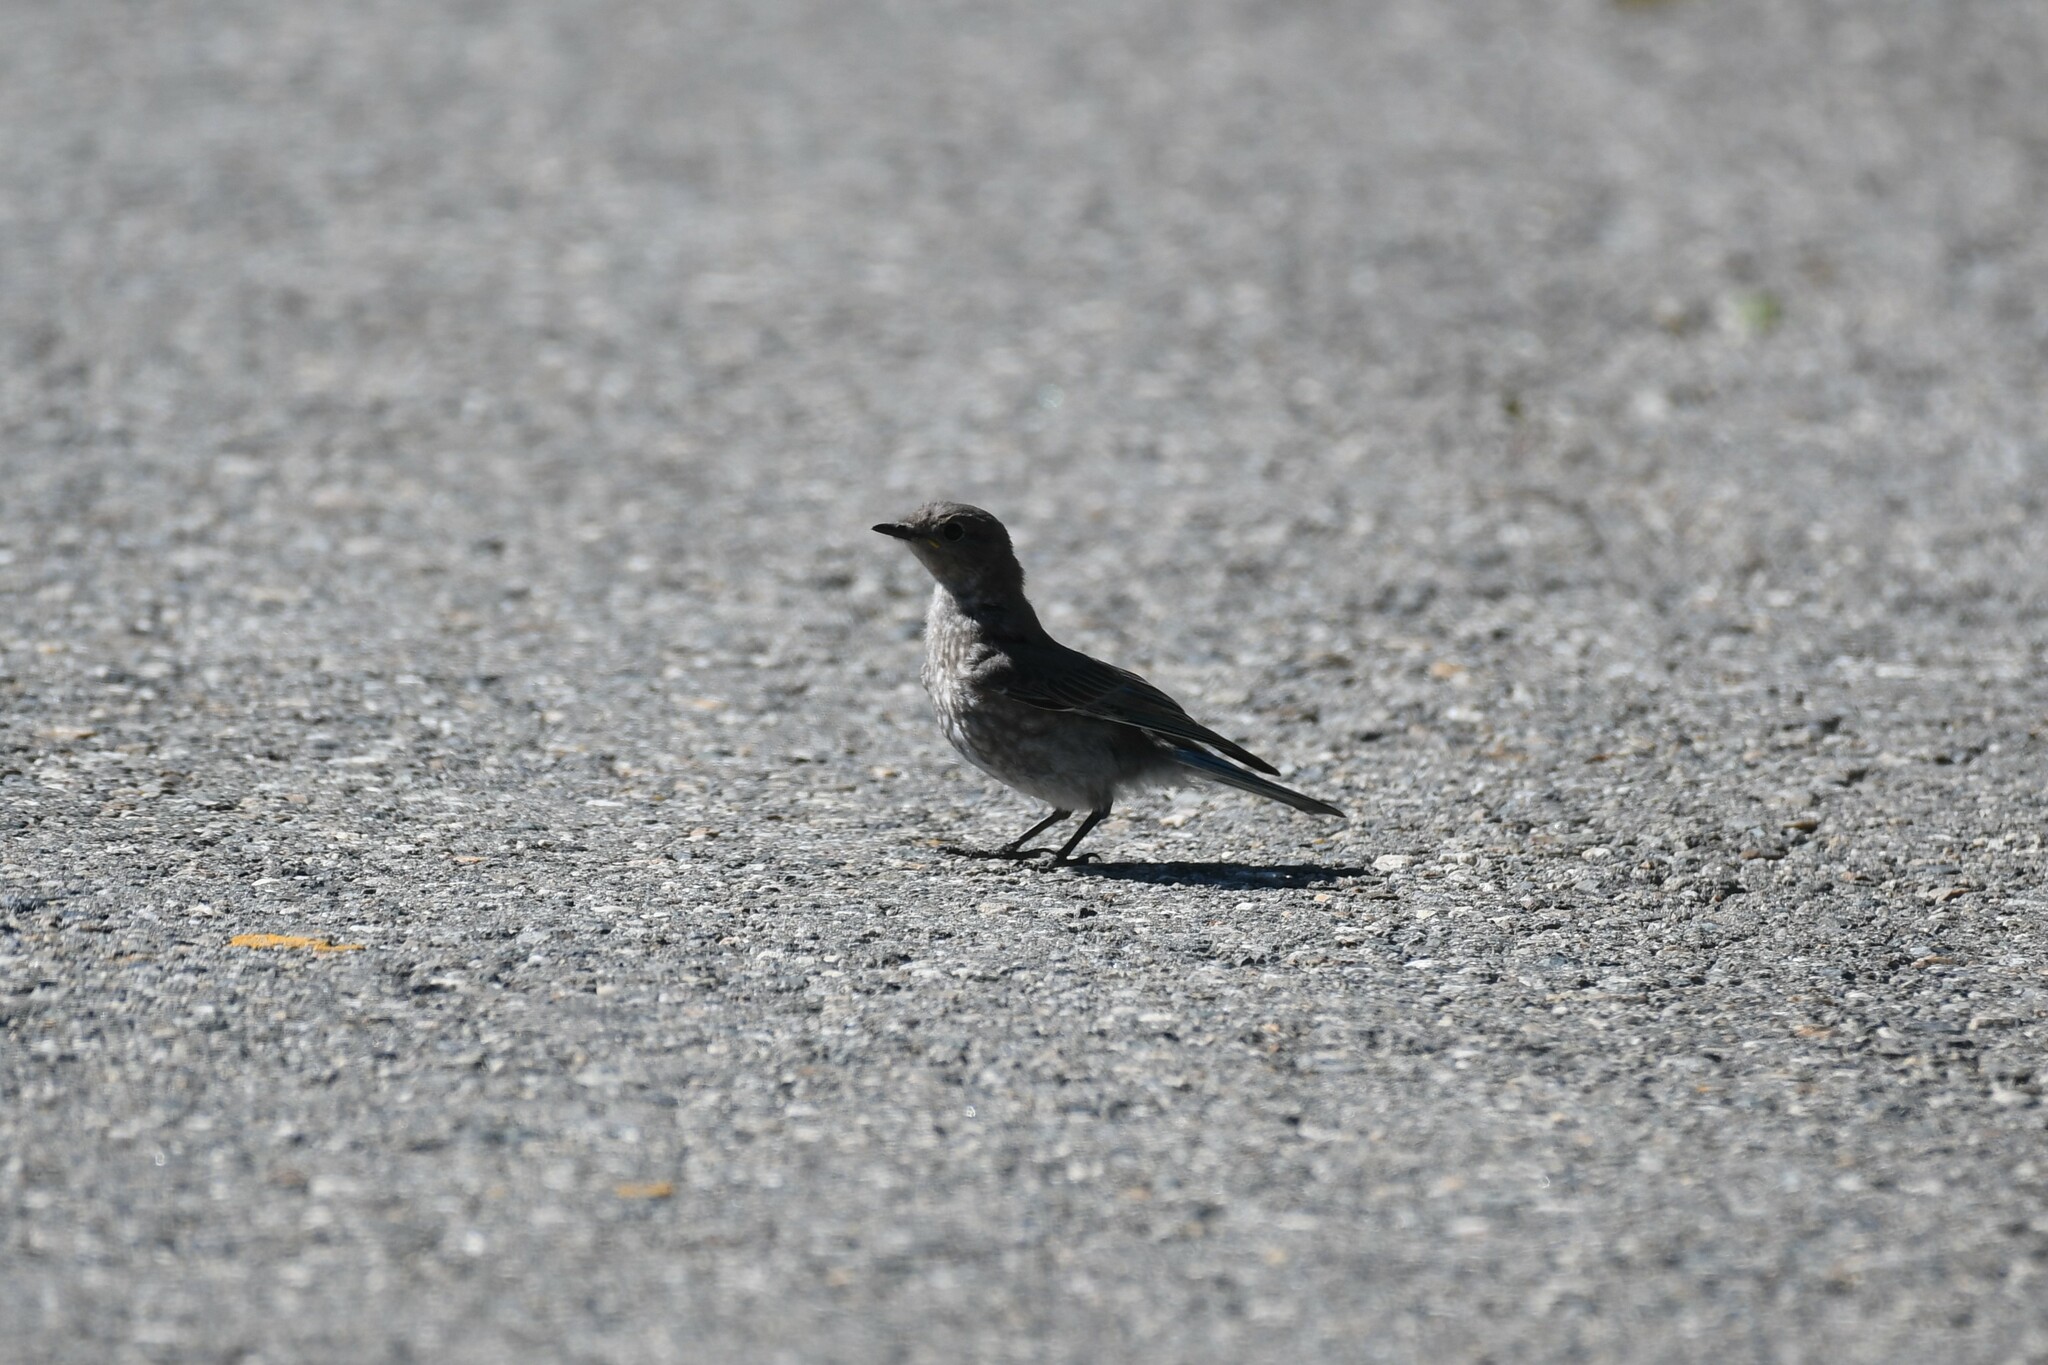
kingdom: Animalia
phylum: Chordata
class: Aves
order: Passeriformes
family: Turdidae
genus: Sialia
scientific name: Sialia currucoides
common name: Mountain bluebird
